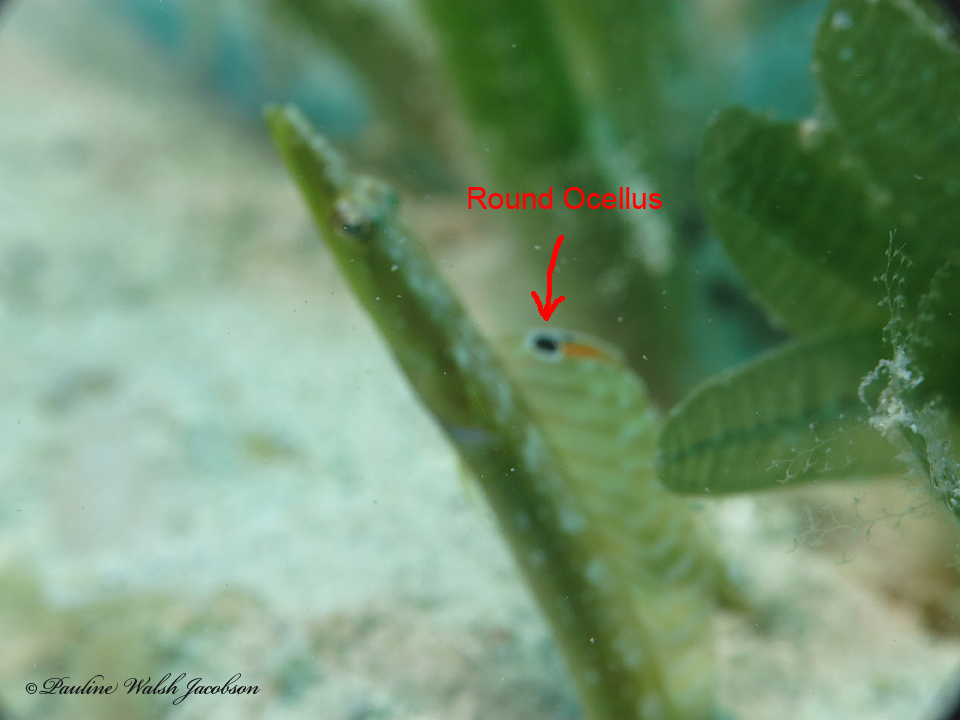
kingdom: Animalia
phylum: Chordata
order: Perciformes
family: Chaenopsidae
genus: Chaenopsis
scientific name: Chaenopsis limbaughi
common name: Yellowface pikeblenny
